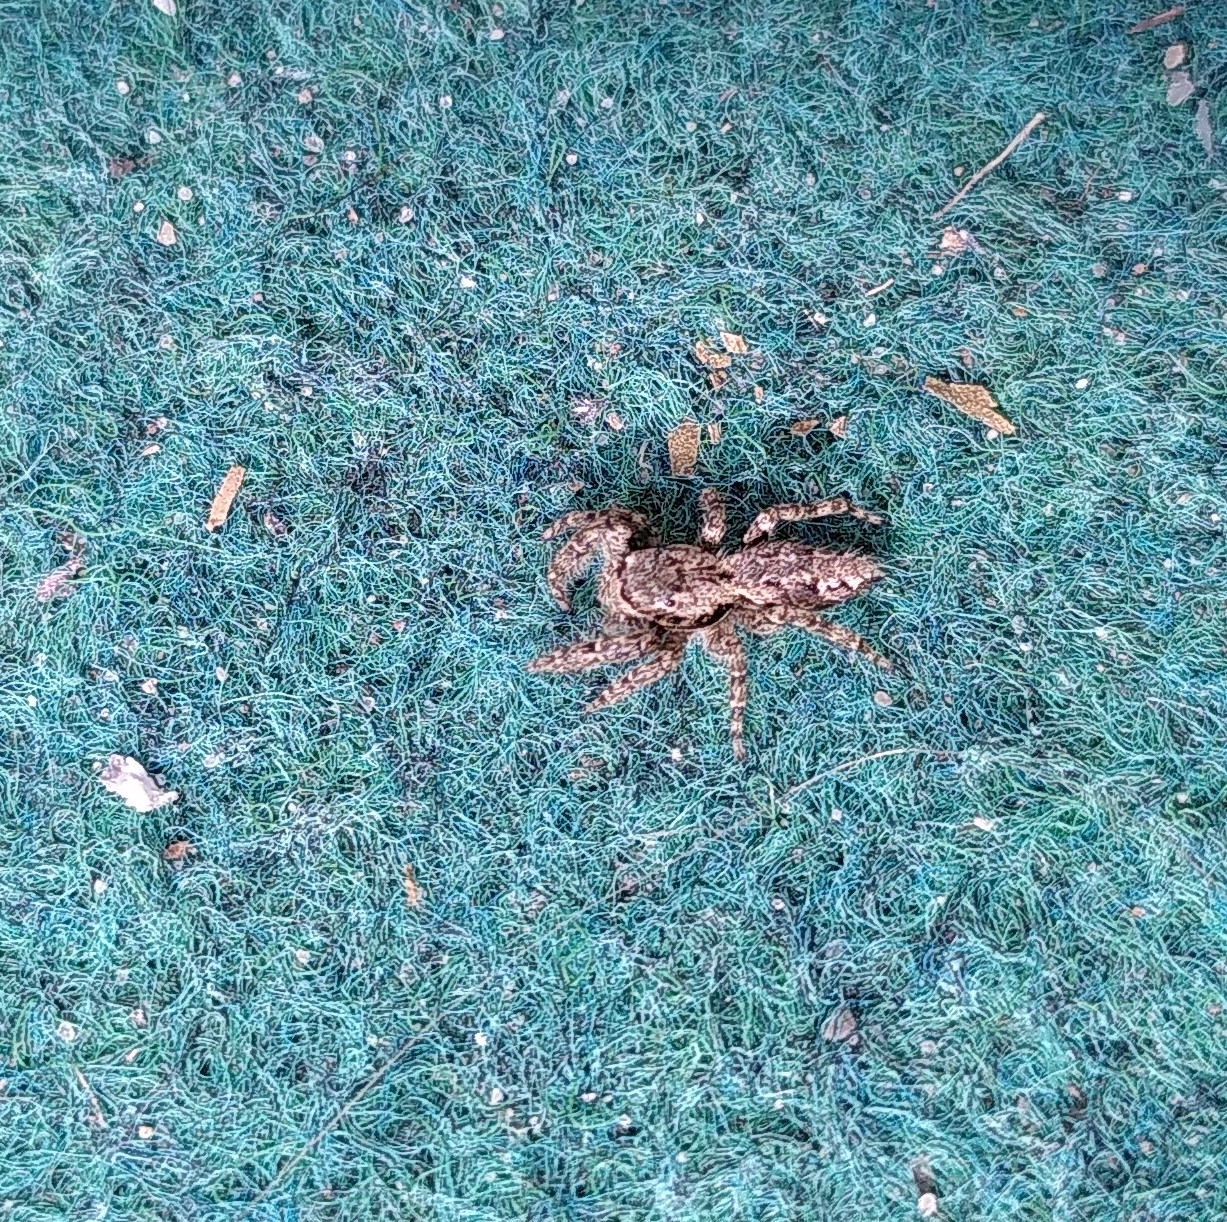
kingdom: Animalia
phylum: Arthropoda
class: Arachnida
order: Araneae
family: Salticidae
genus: Marpissa
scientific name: Marpissa muscosa
